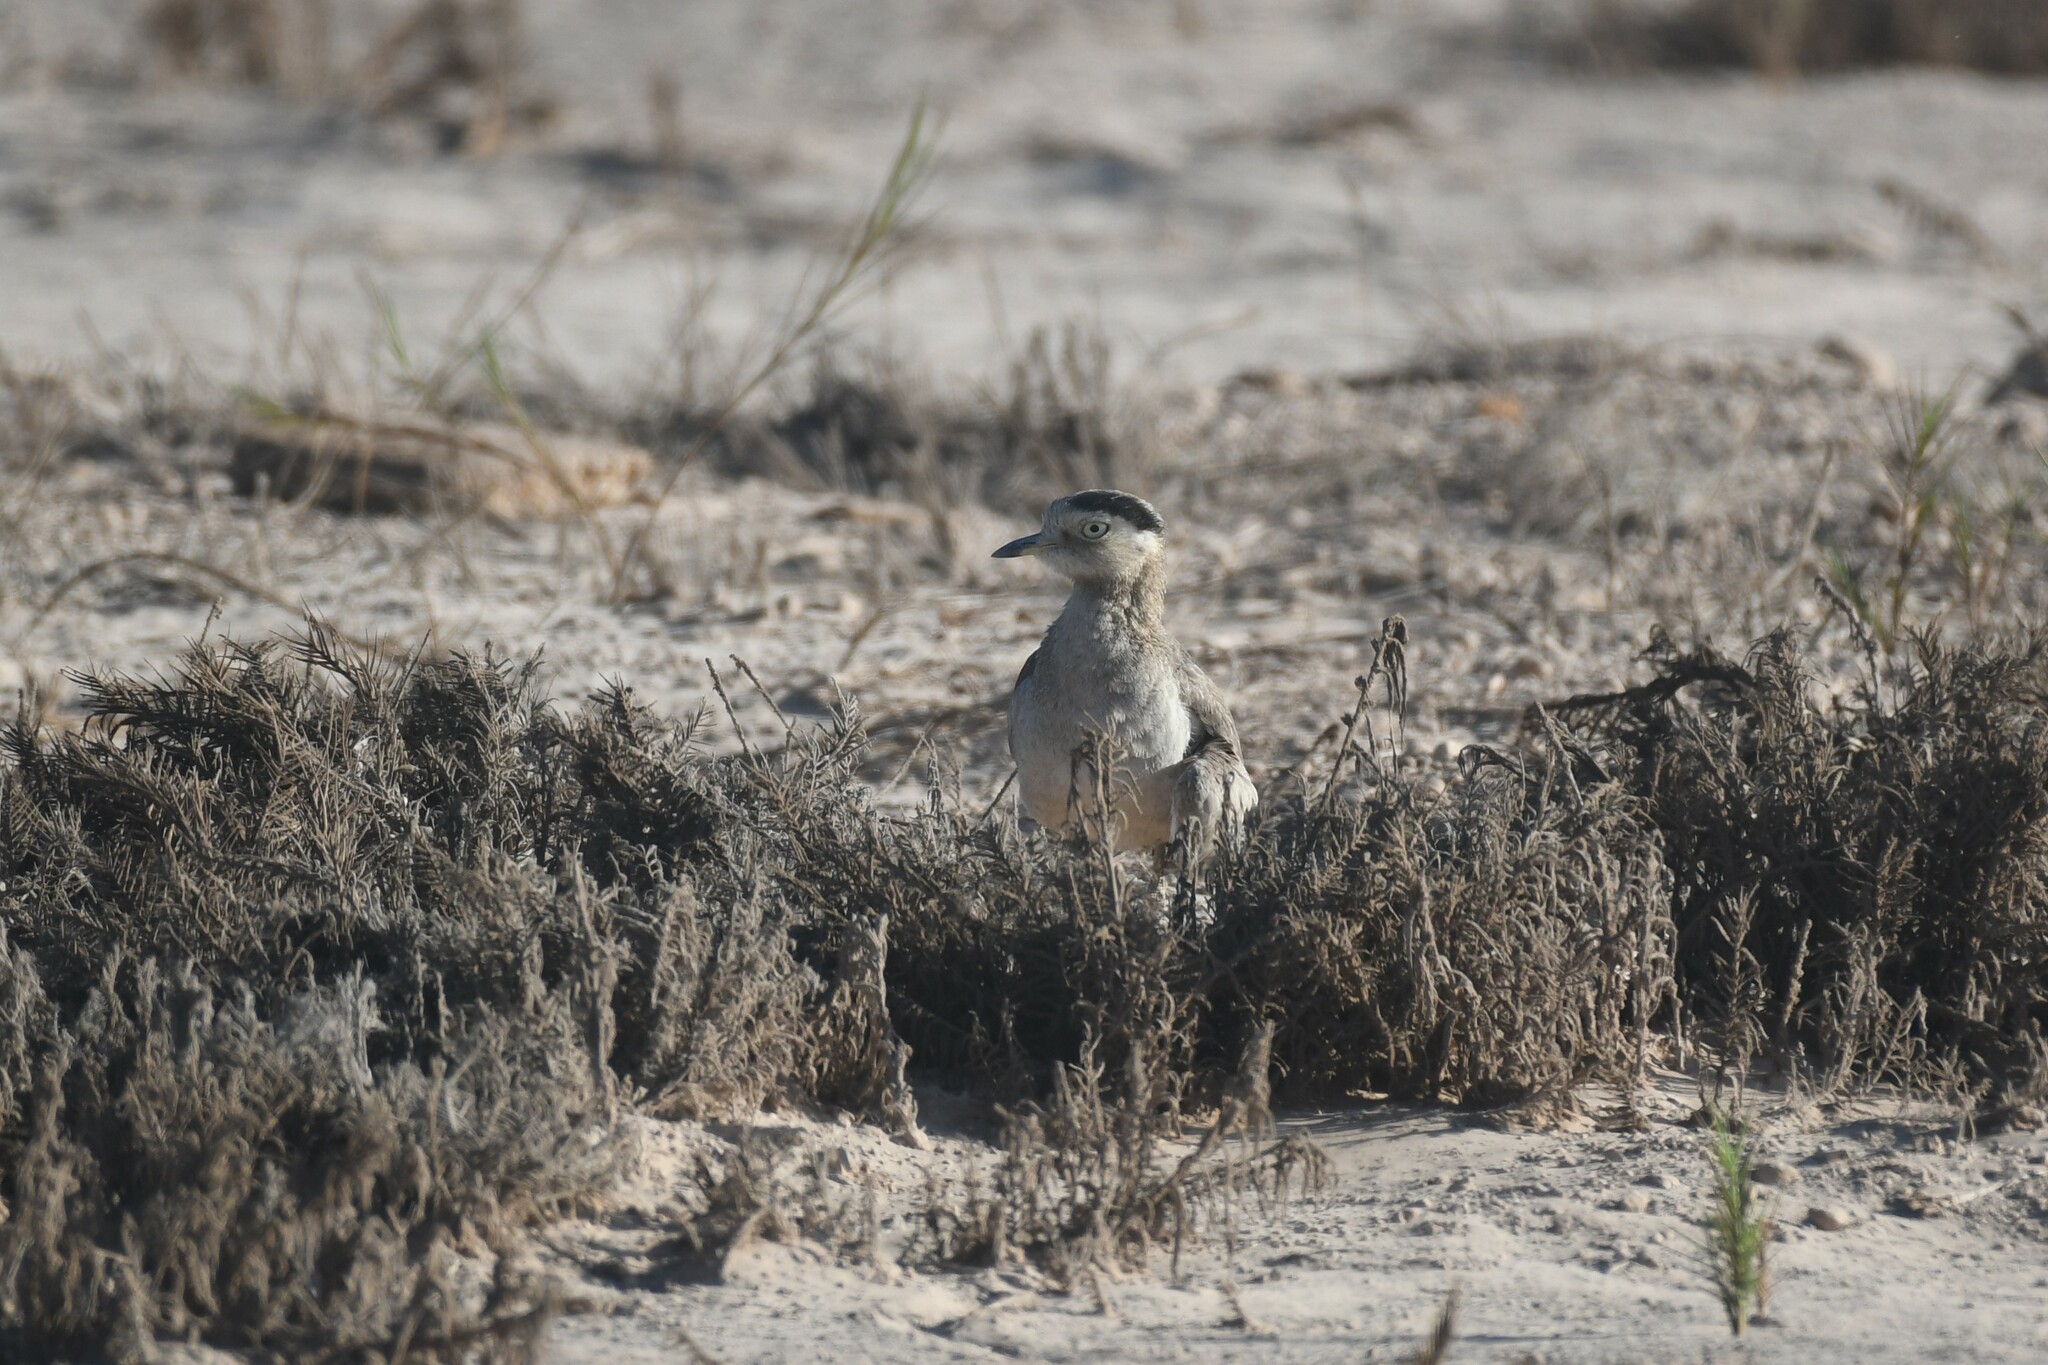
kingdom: Animalia
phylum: Chordata
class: Aves
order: Charadriiformes
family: Burhinidae
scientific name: Burhinidae
